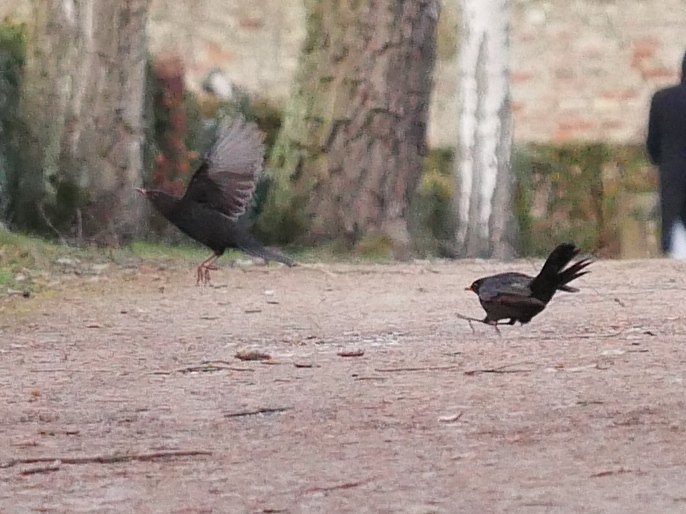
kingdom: Animalia
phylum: Chordata
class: Aves
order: Passeriformes
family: Turdidae
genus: Turdus
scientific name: Turdus merula
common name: Common blackbird
